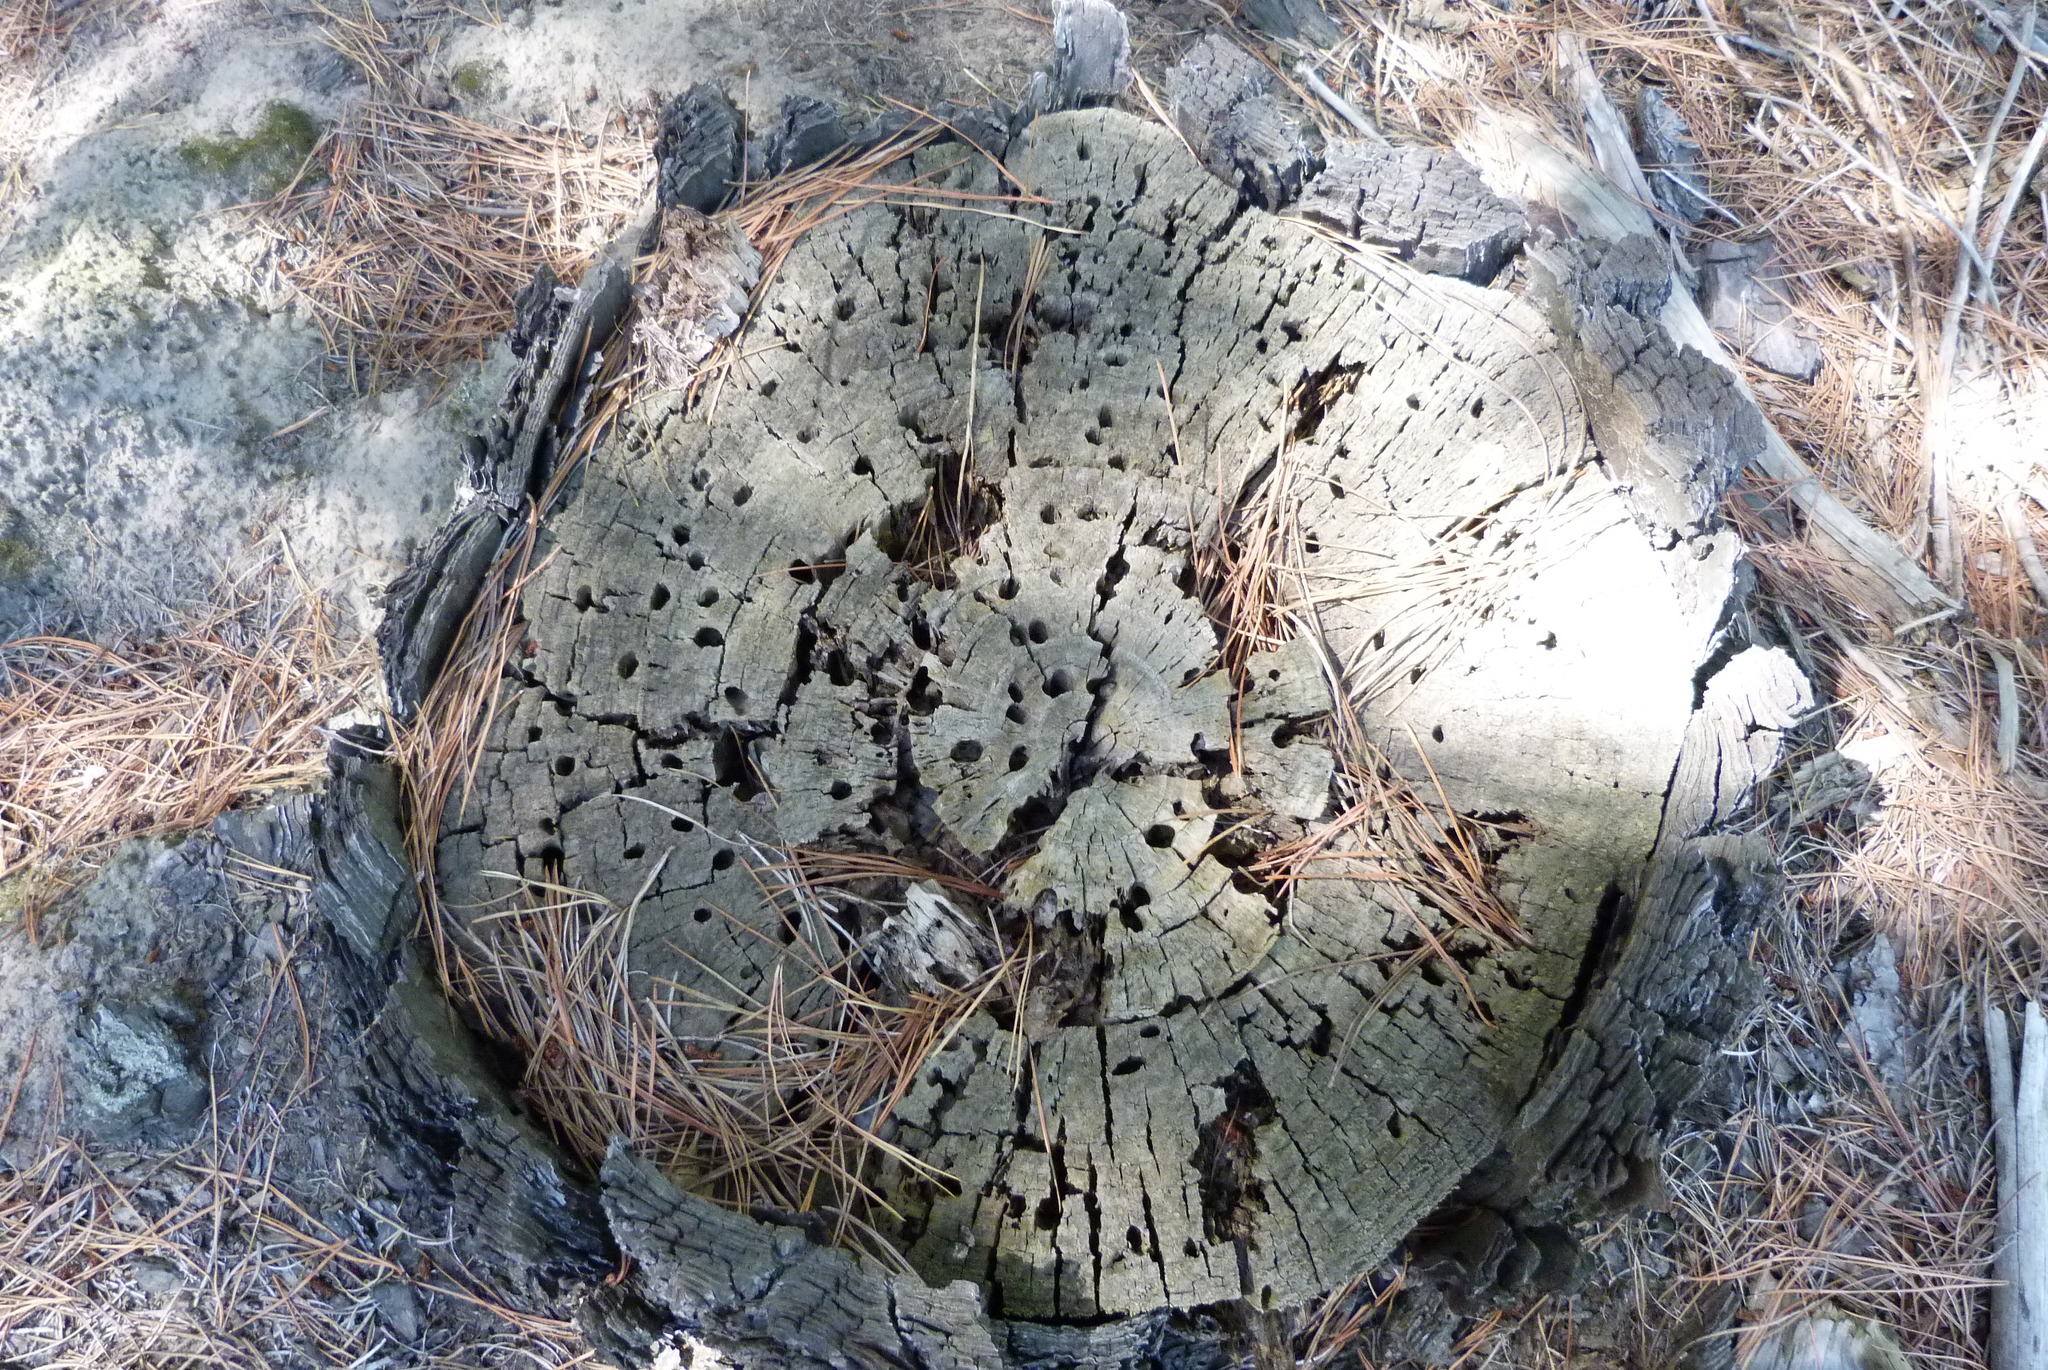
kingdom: Animalia
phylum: Arthropoda
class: Insecta
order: Coleoptera
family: Cerambycidae
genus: Prionoplus
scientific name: Prionoplus reticularis
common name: Huhu beetle
